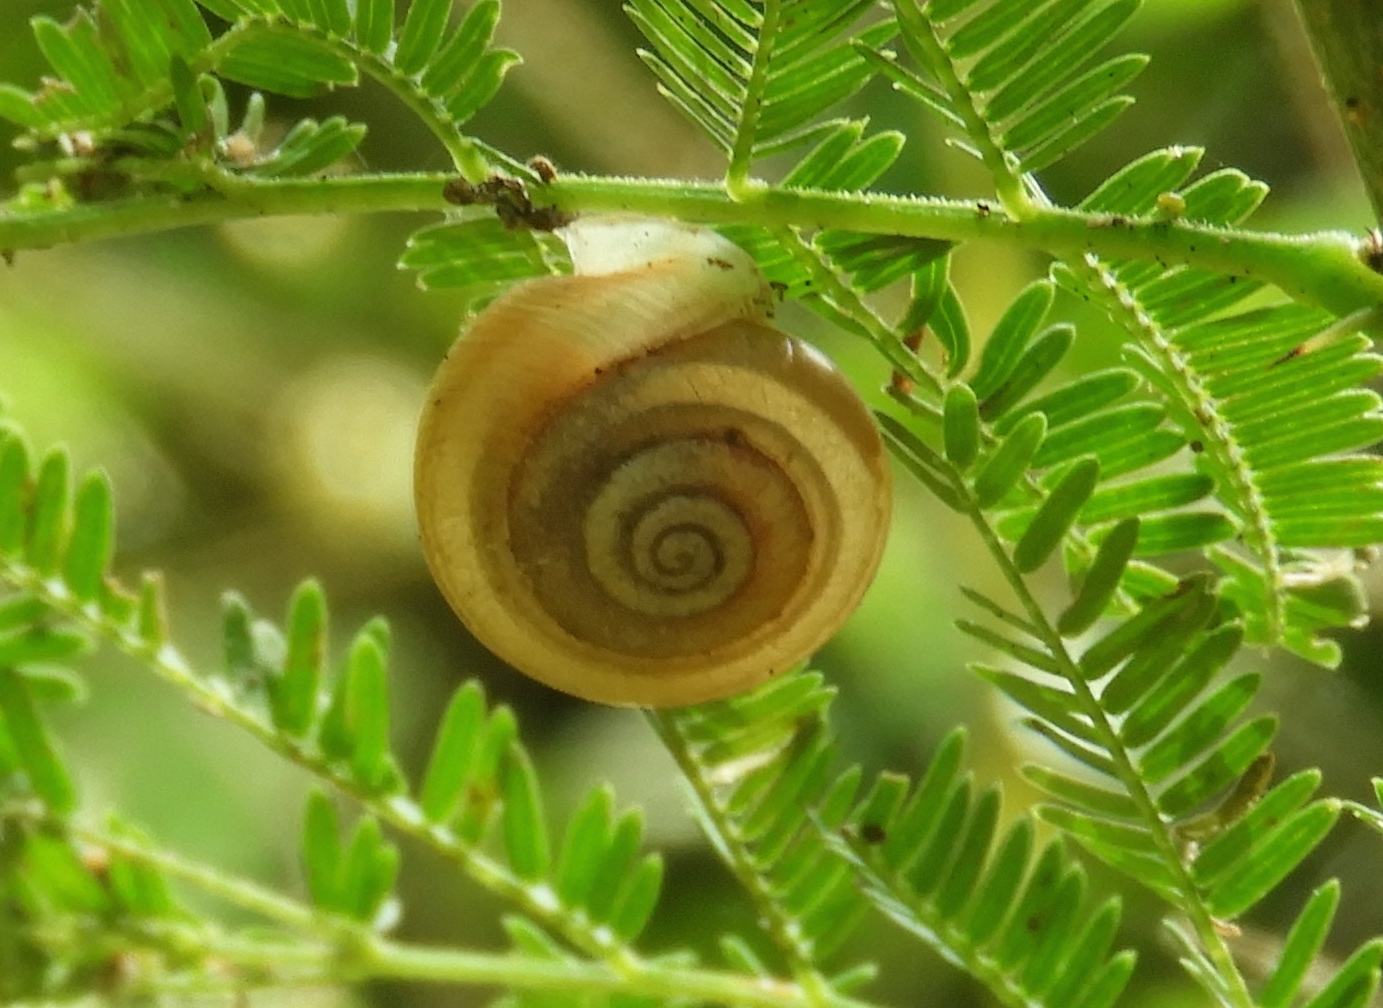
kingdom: Animalia
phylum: Mollusca
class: Gastropoda
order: Stylommatophora
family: Polygyridae
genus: Linisa
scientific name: Linisa
